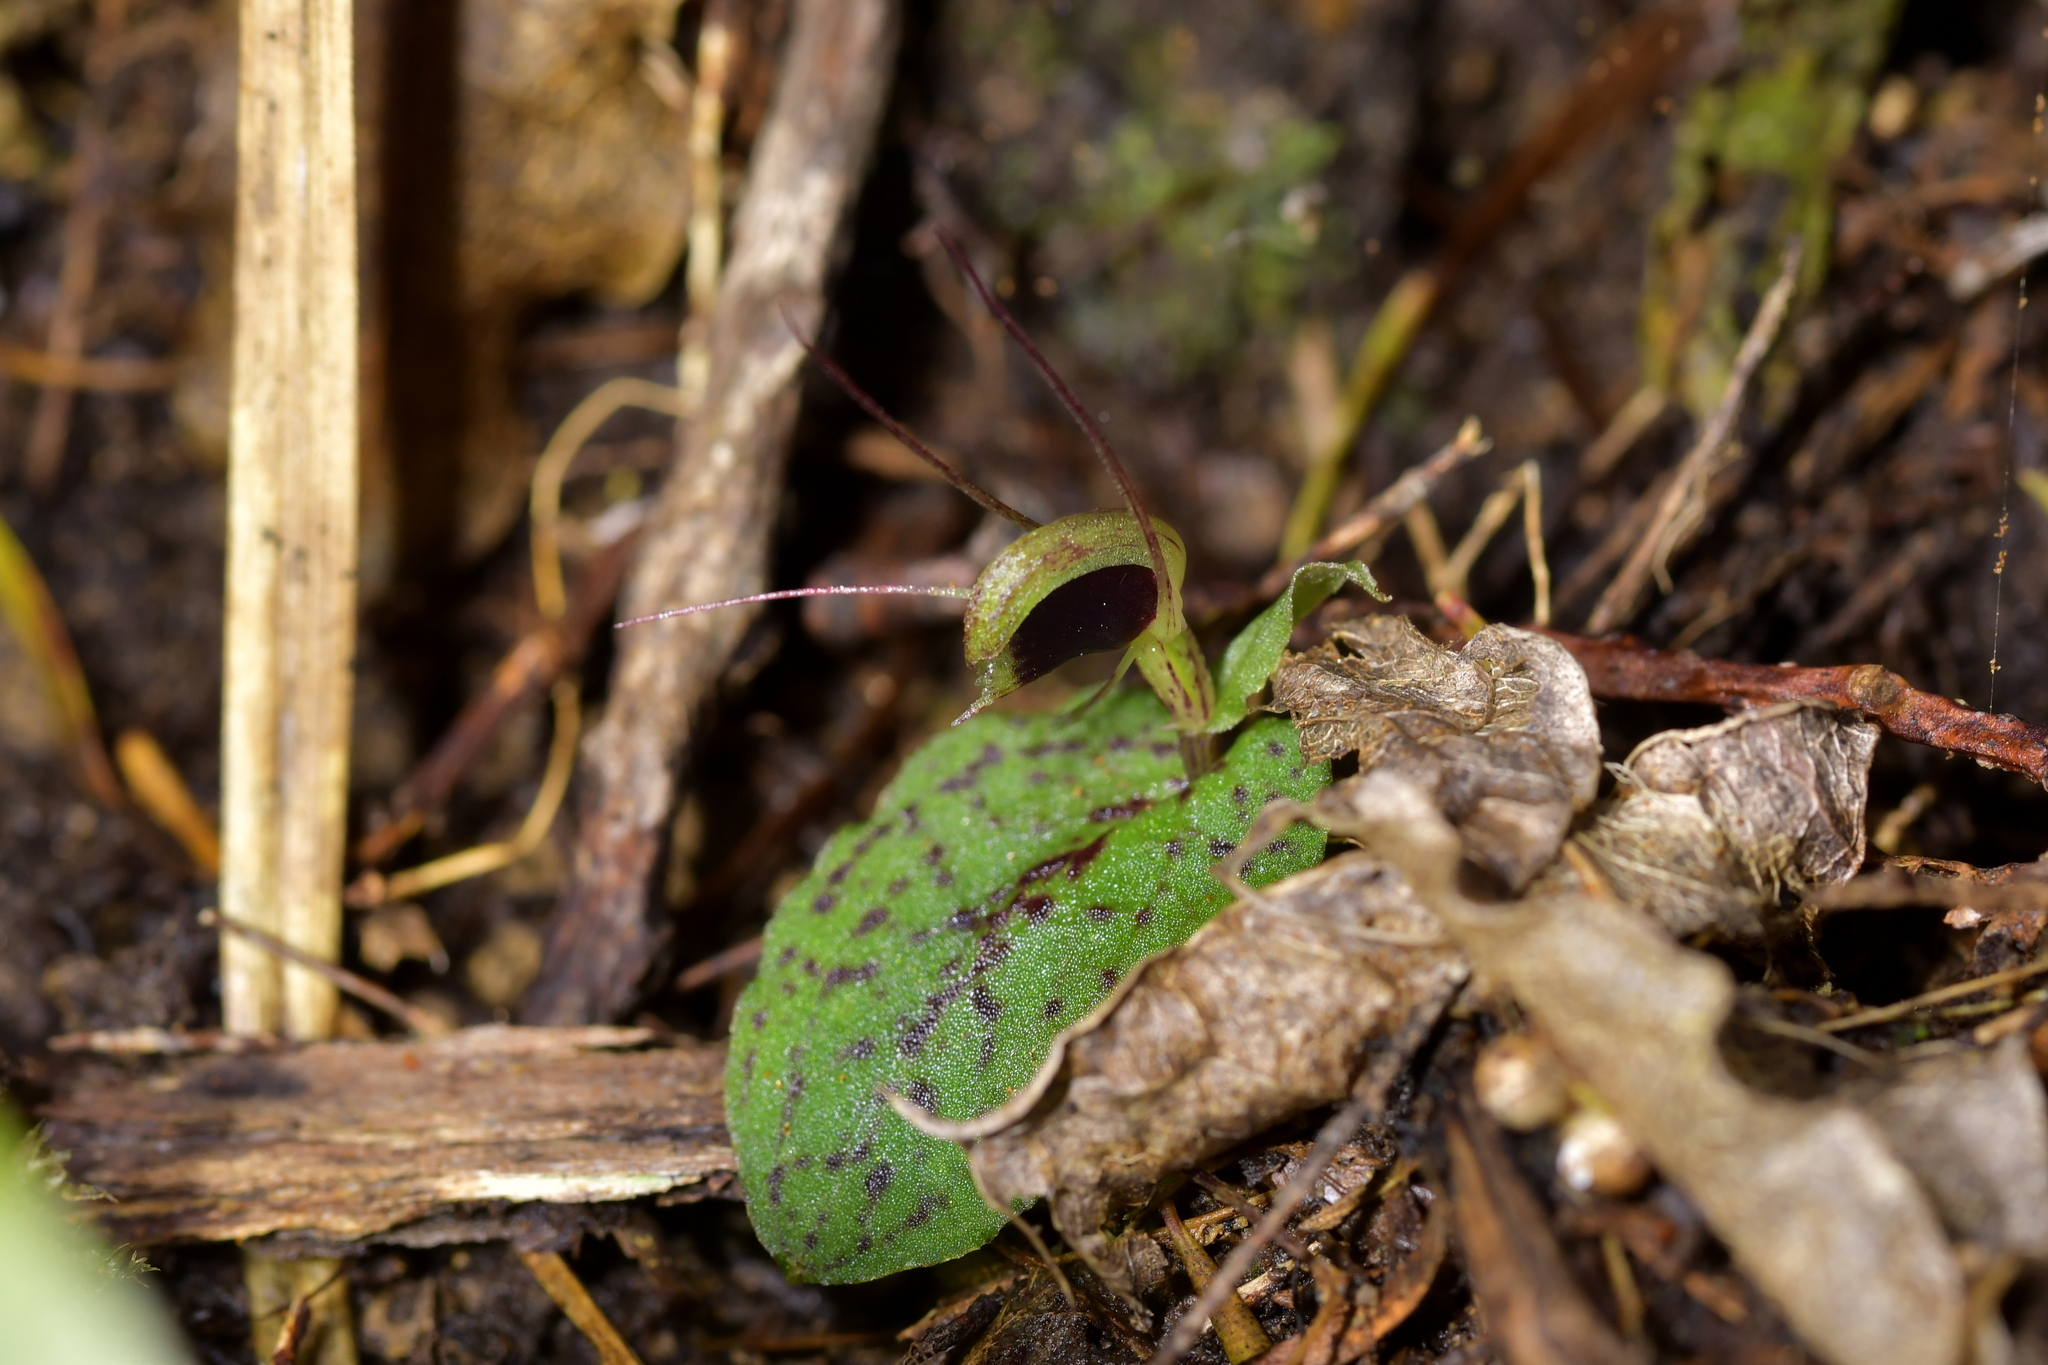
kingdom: Plantae
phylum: Tracheophyta
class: Liliopsida
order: Asparagales
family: Orchidaceae
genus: Corybas
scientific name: Corybas oblongus
